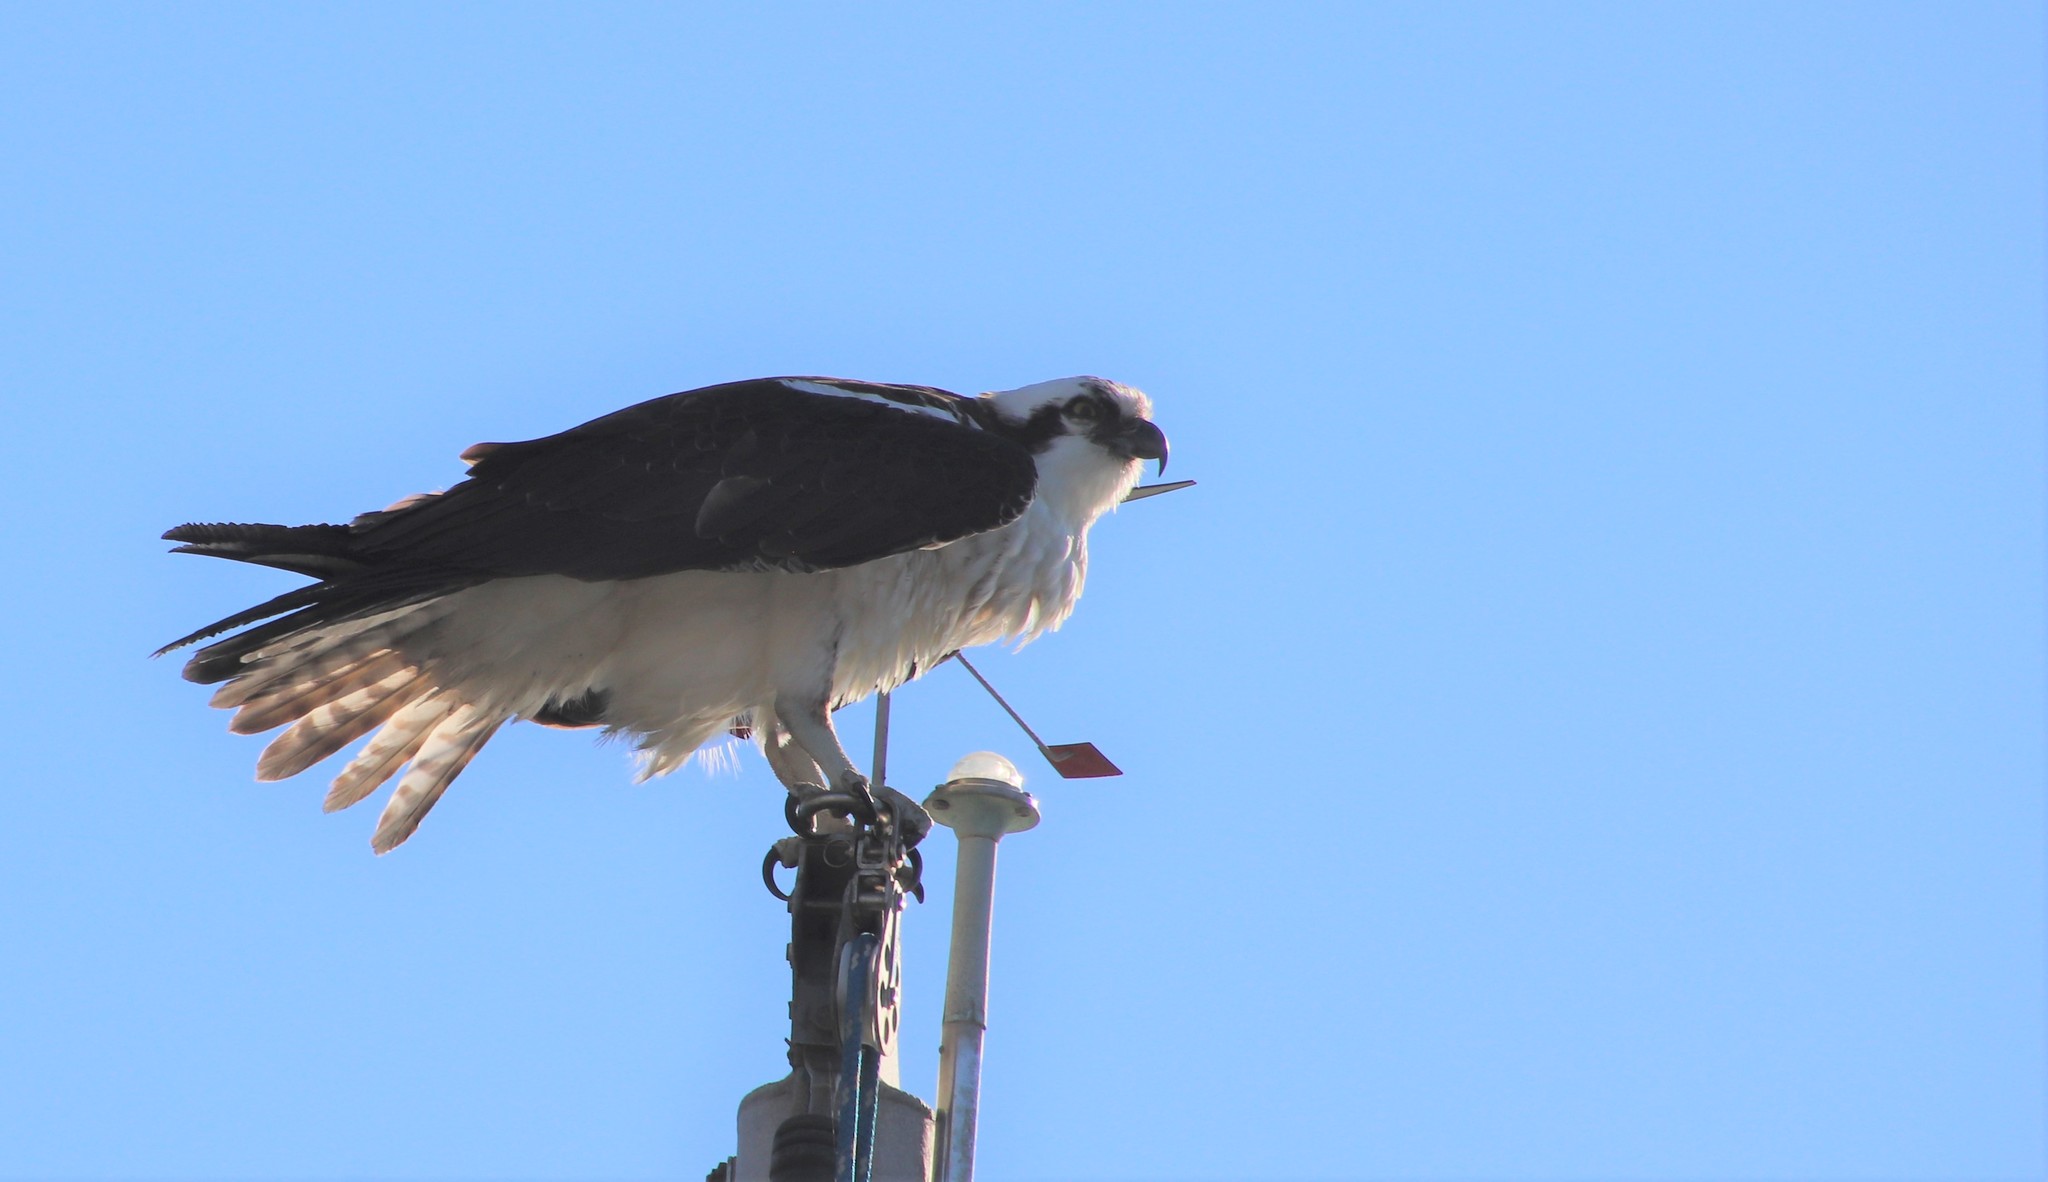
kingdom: Animalia
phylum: Chordata
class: Aves
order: Accipitriformes
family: Pandionidae
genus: Pandion
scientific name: Pandion haliaetus
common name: Osprey
